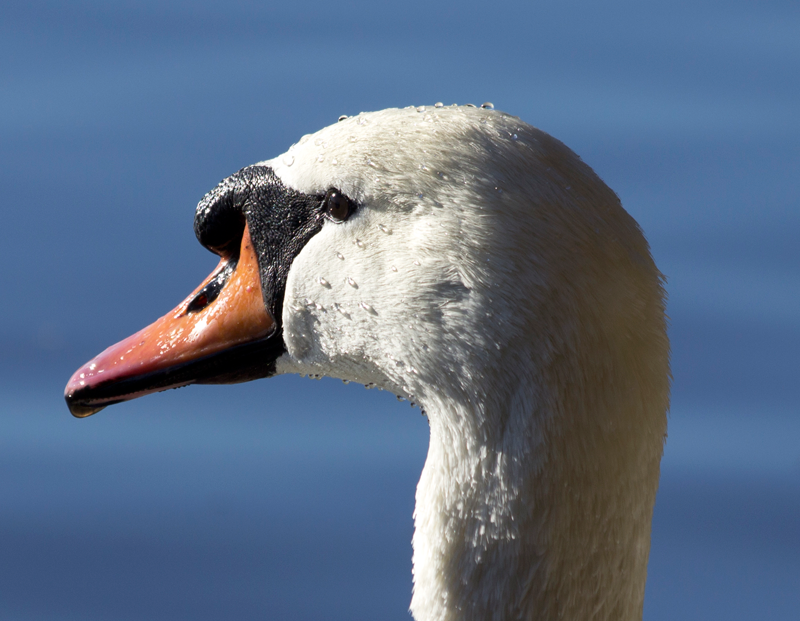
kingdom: Animalia
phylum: Chordata
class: Aves
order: Anseriformes
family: Anatidae
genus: Cygnus
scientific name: Cygnus olor
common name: Mute swan
